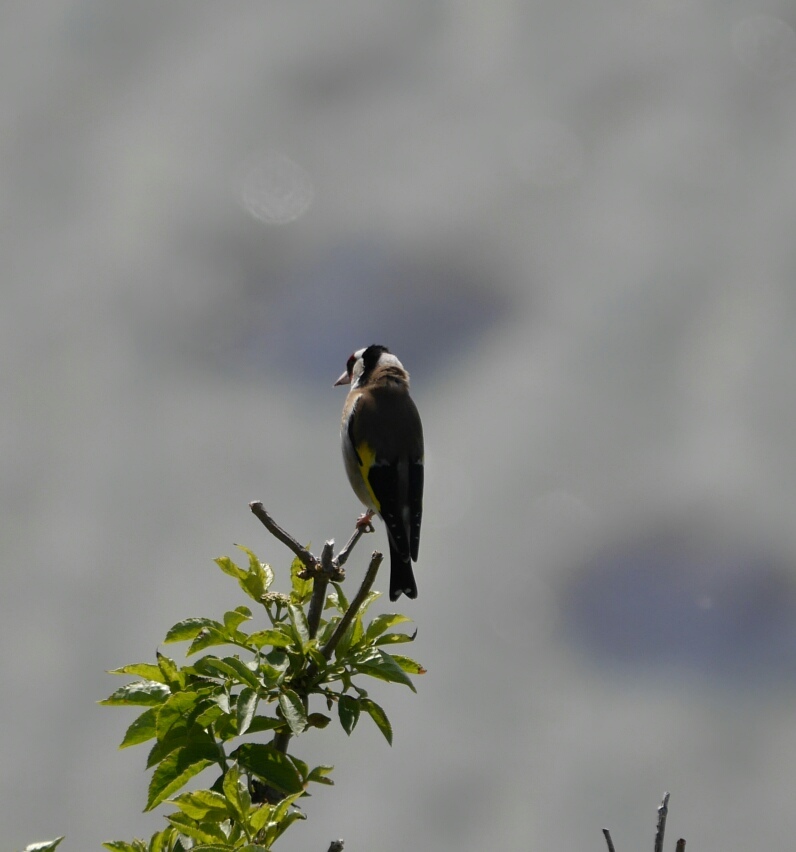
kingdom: Animalia
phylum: Chordata
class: Aves
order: Passeriformes
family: Fringillidae
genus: Carduelis
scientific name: Carduelis carduelis
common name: European goldfinch
